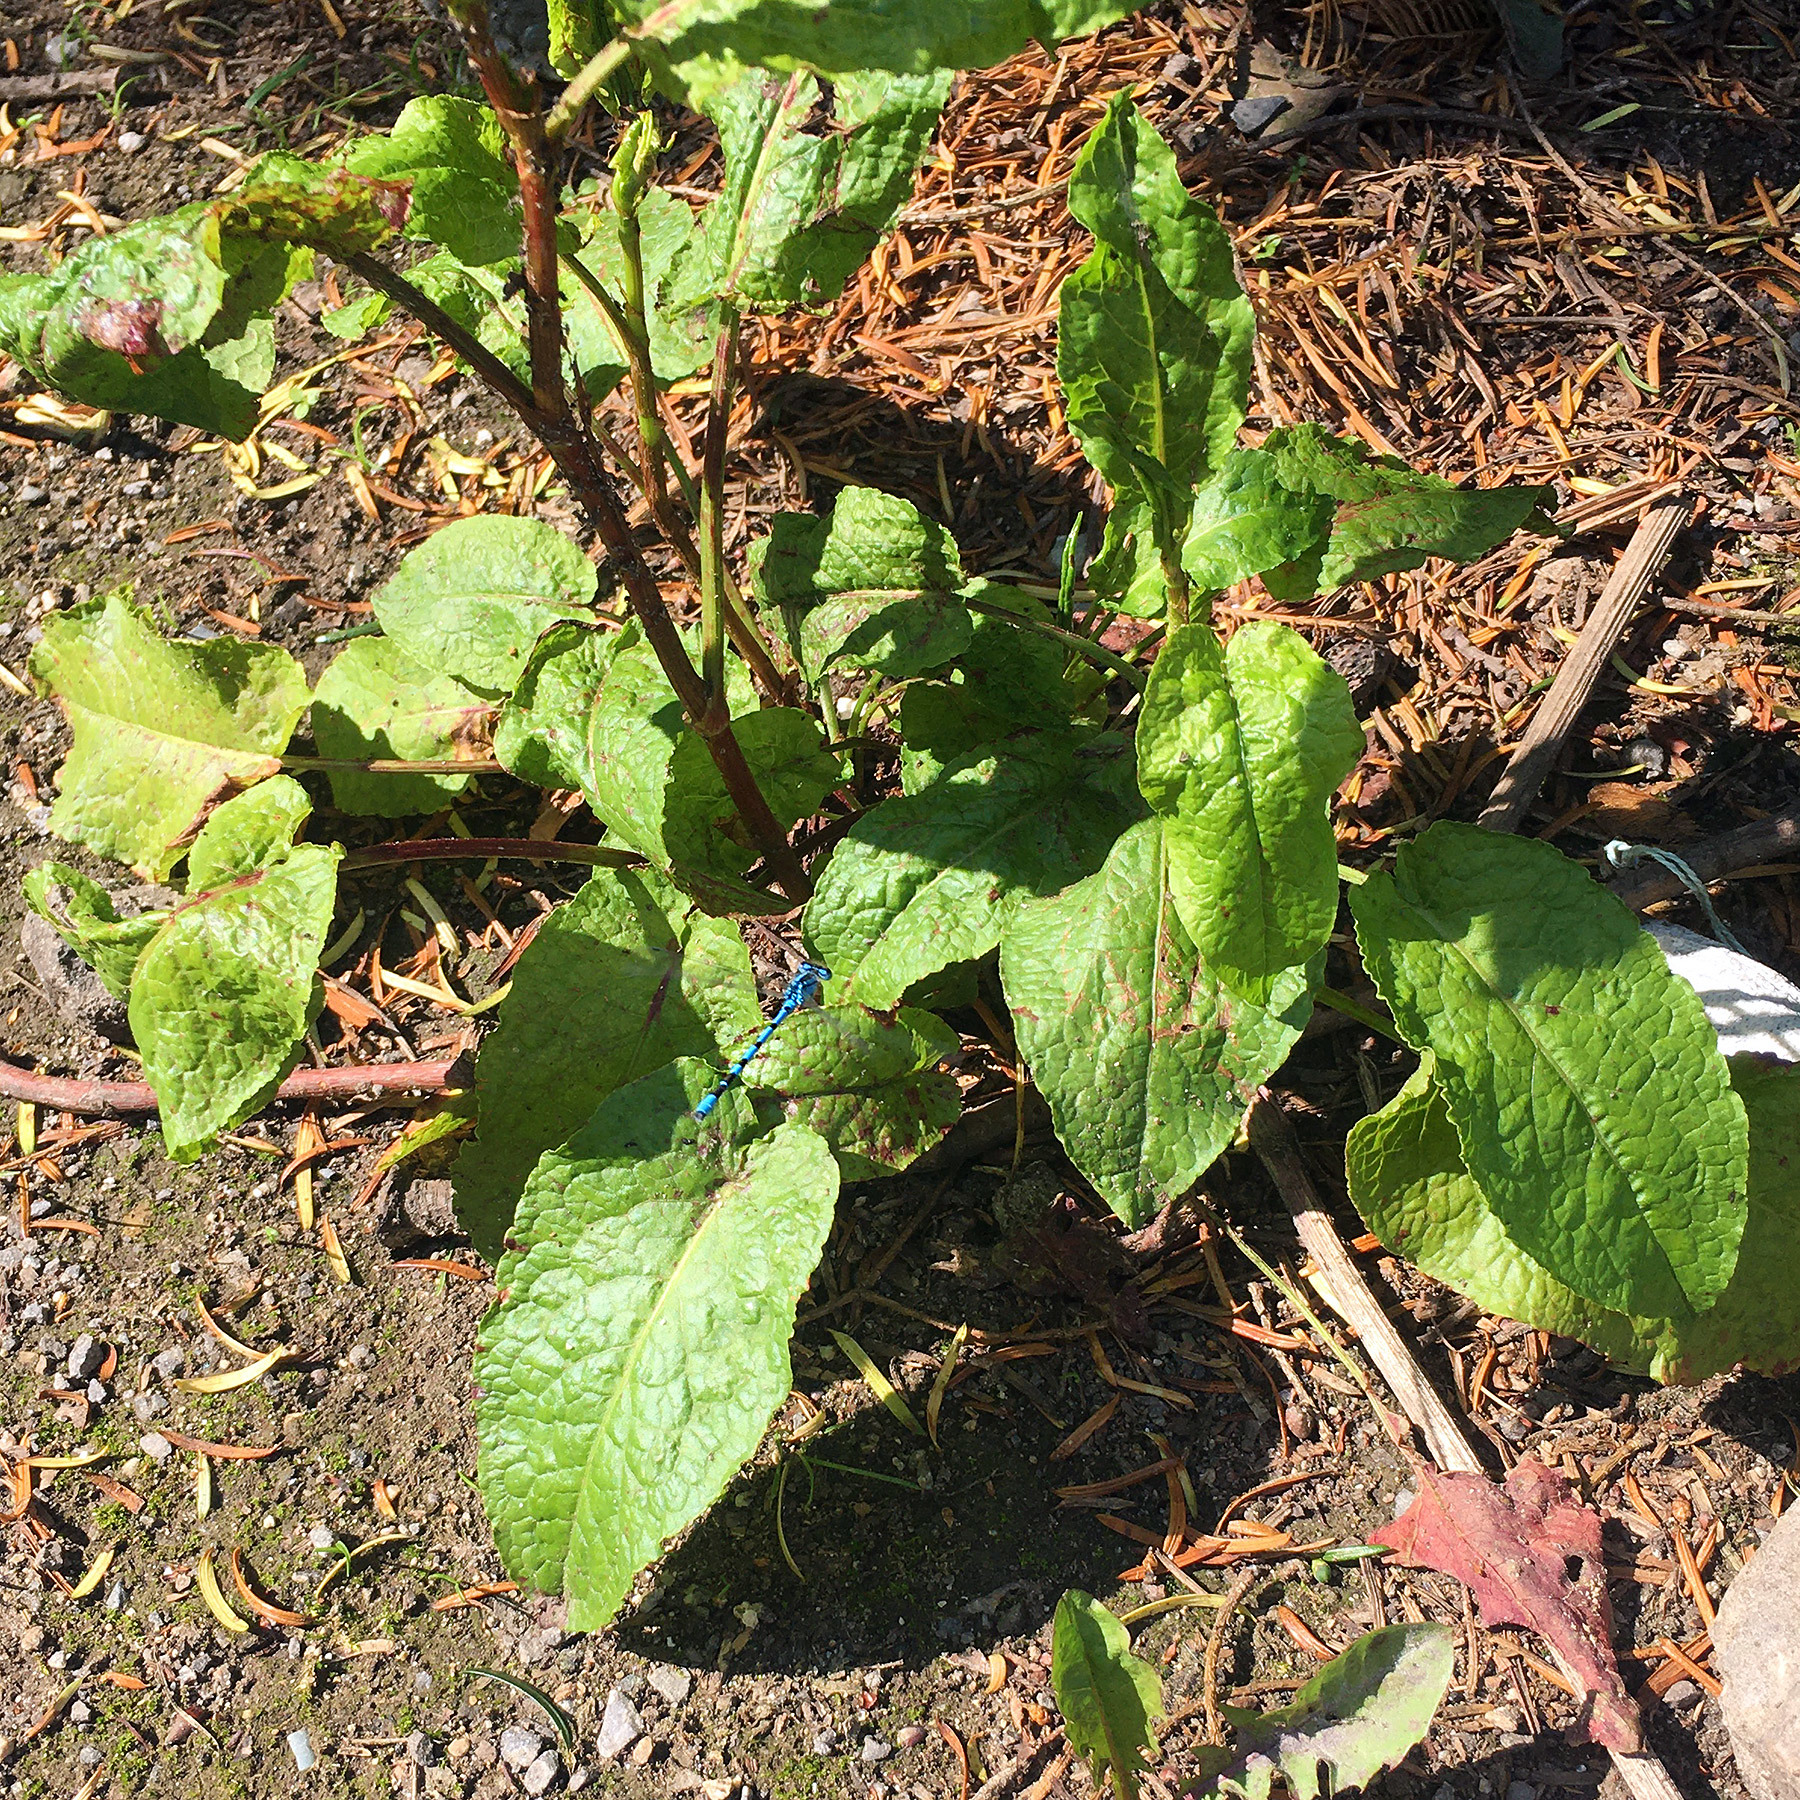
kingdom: Animalia
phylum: Arthropoda
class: Insecta
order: Odonata
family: Coenagrionidae
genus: Enallagma
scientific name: Enallagma cyathigerum
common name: Common blue damselfly
